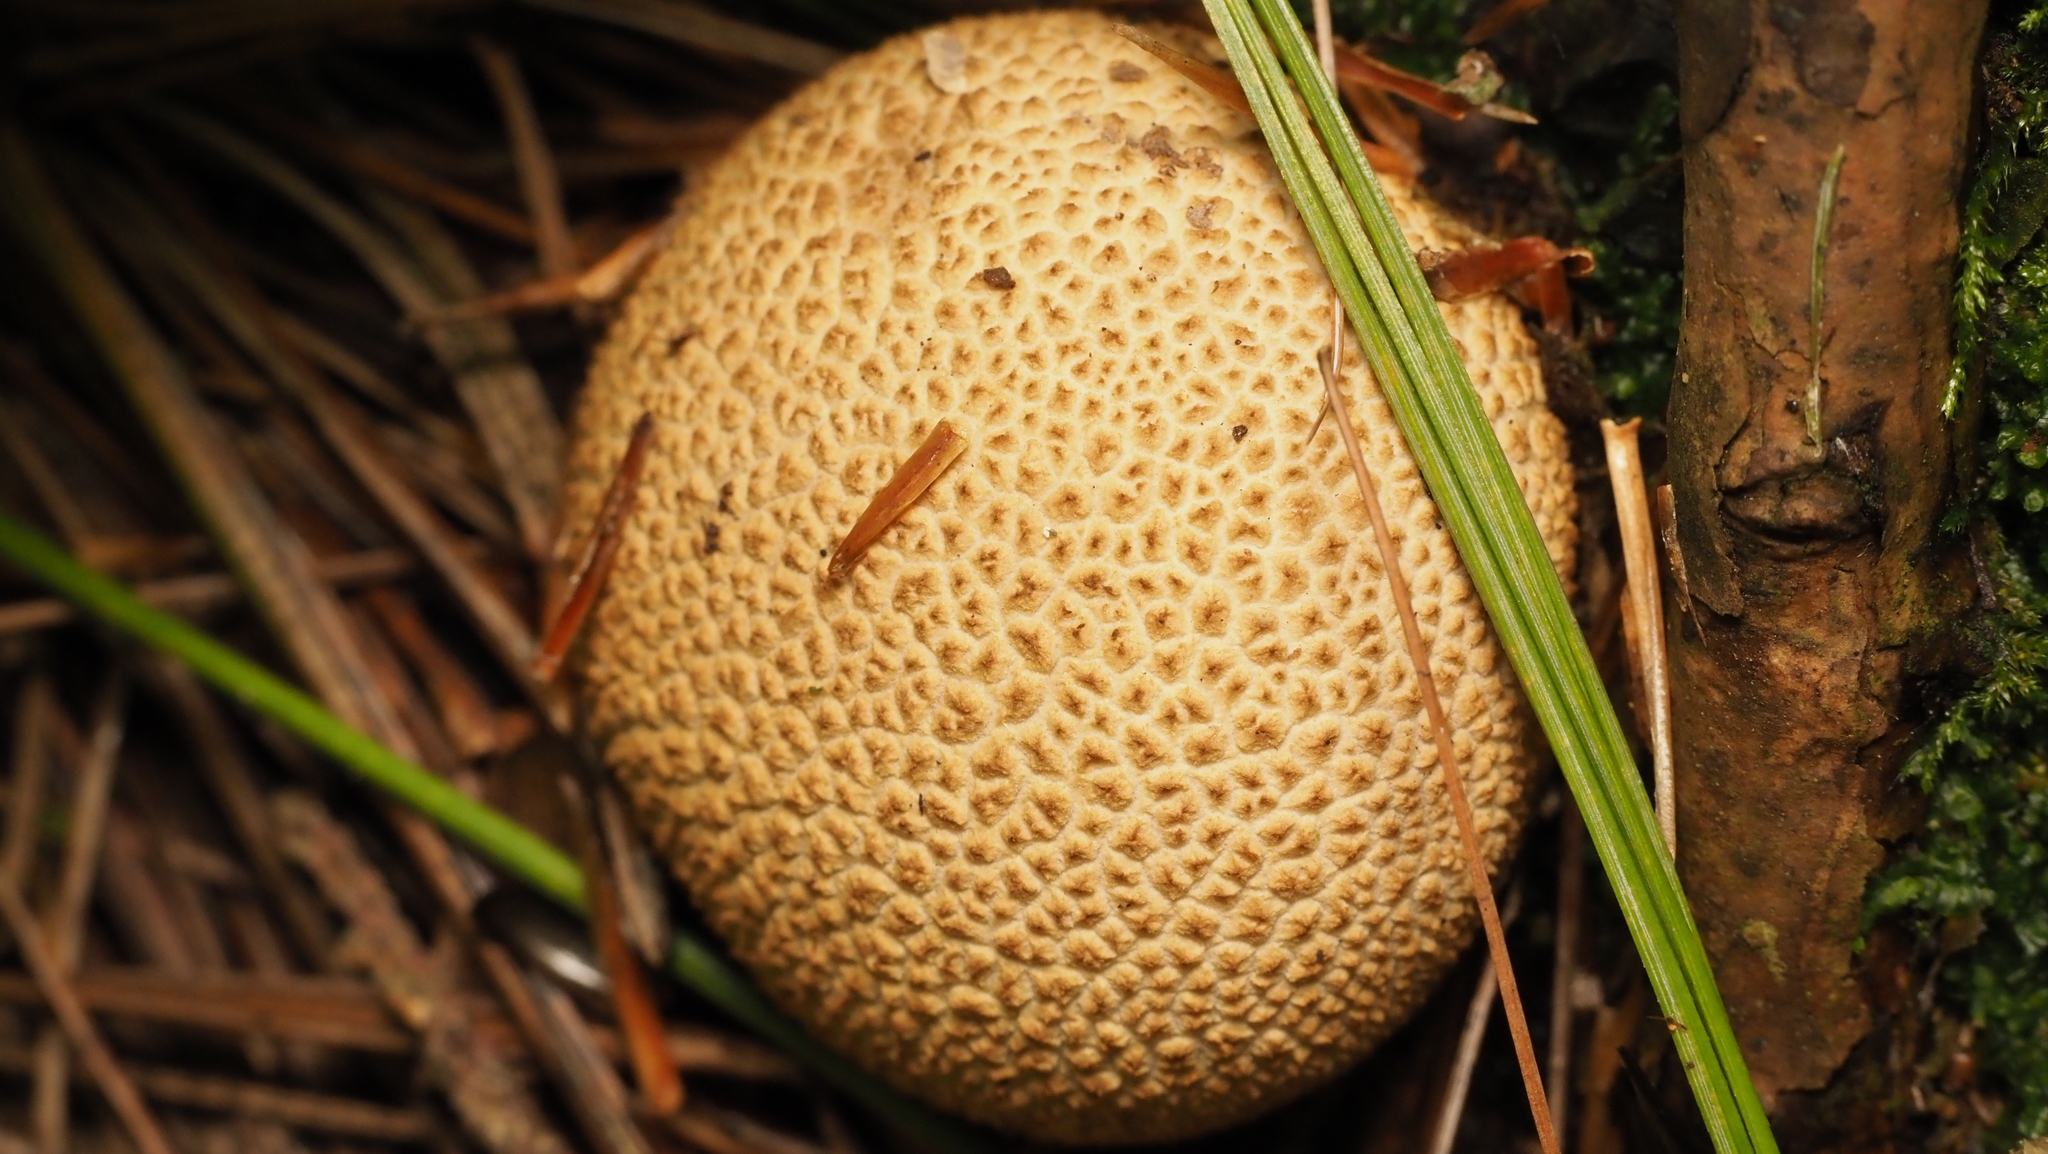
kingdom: Fungi
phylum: Basidiomycota
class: Agaricomycetes
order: Boletales
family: Sclerodermataceae
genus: Scleroderma
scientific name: Scleroderma citrinum
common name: Common earthball
